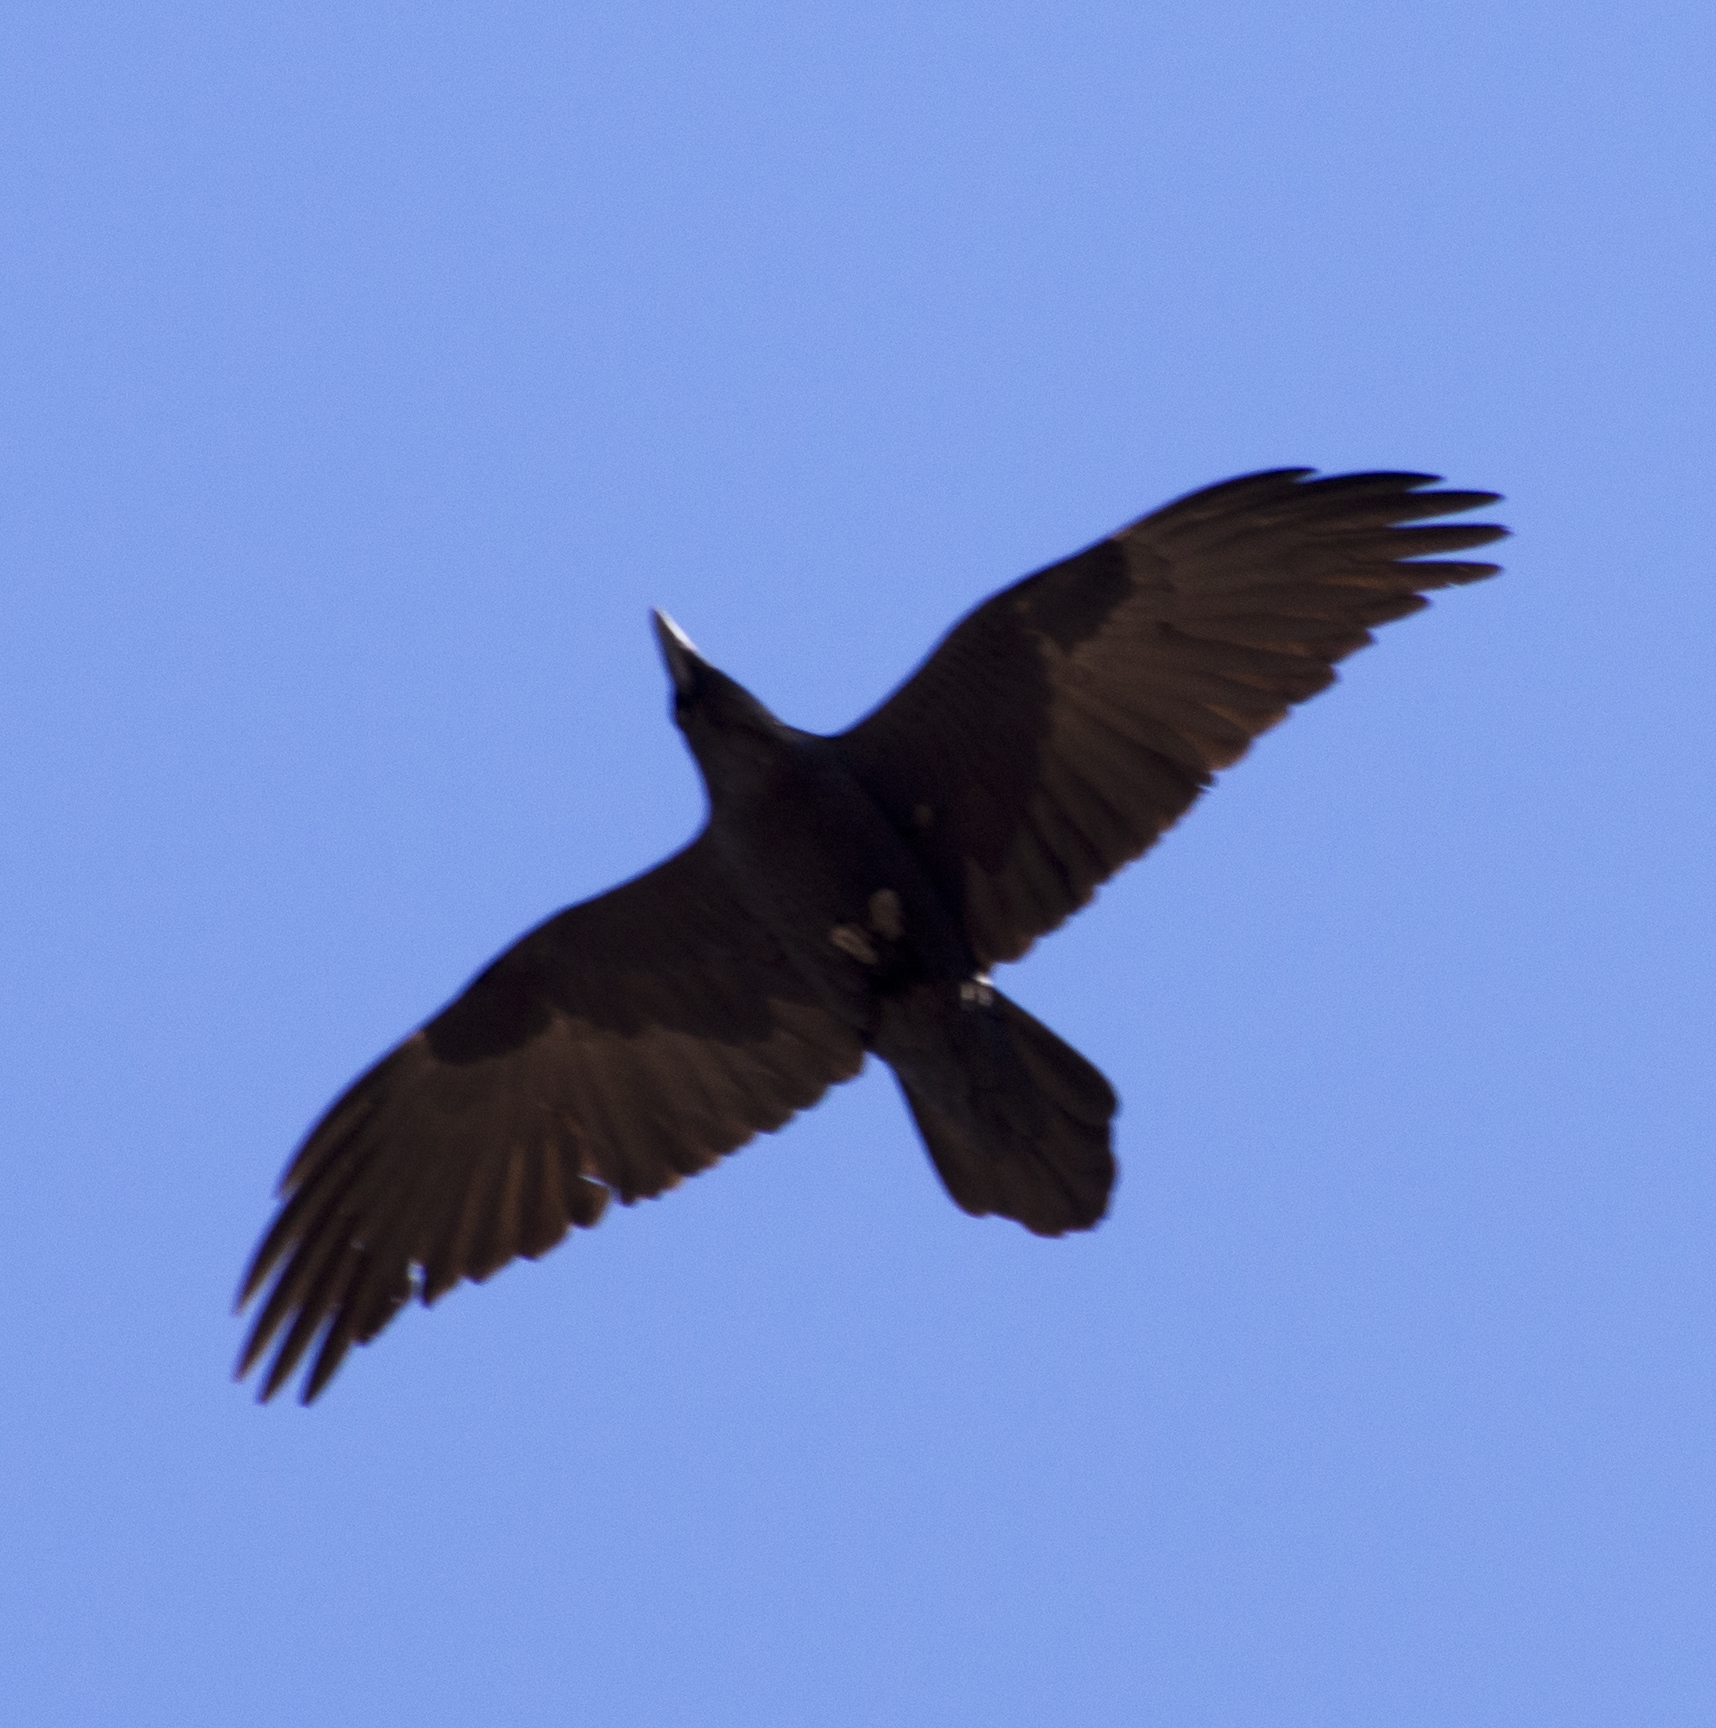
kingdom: Animalia
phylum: Chordata
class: Aves
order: Passeriformes
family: Corvidae
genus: Corvus
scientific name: Corvus corax
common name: Common raven
